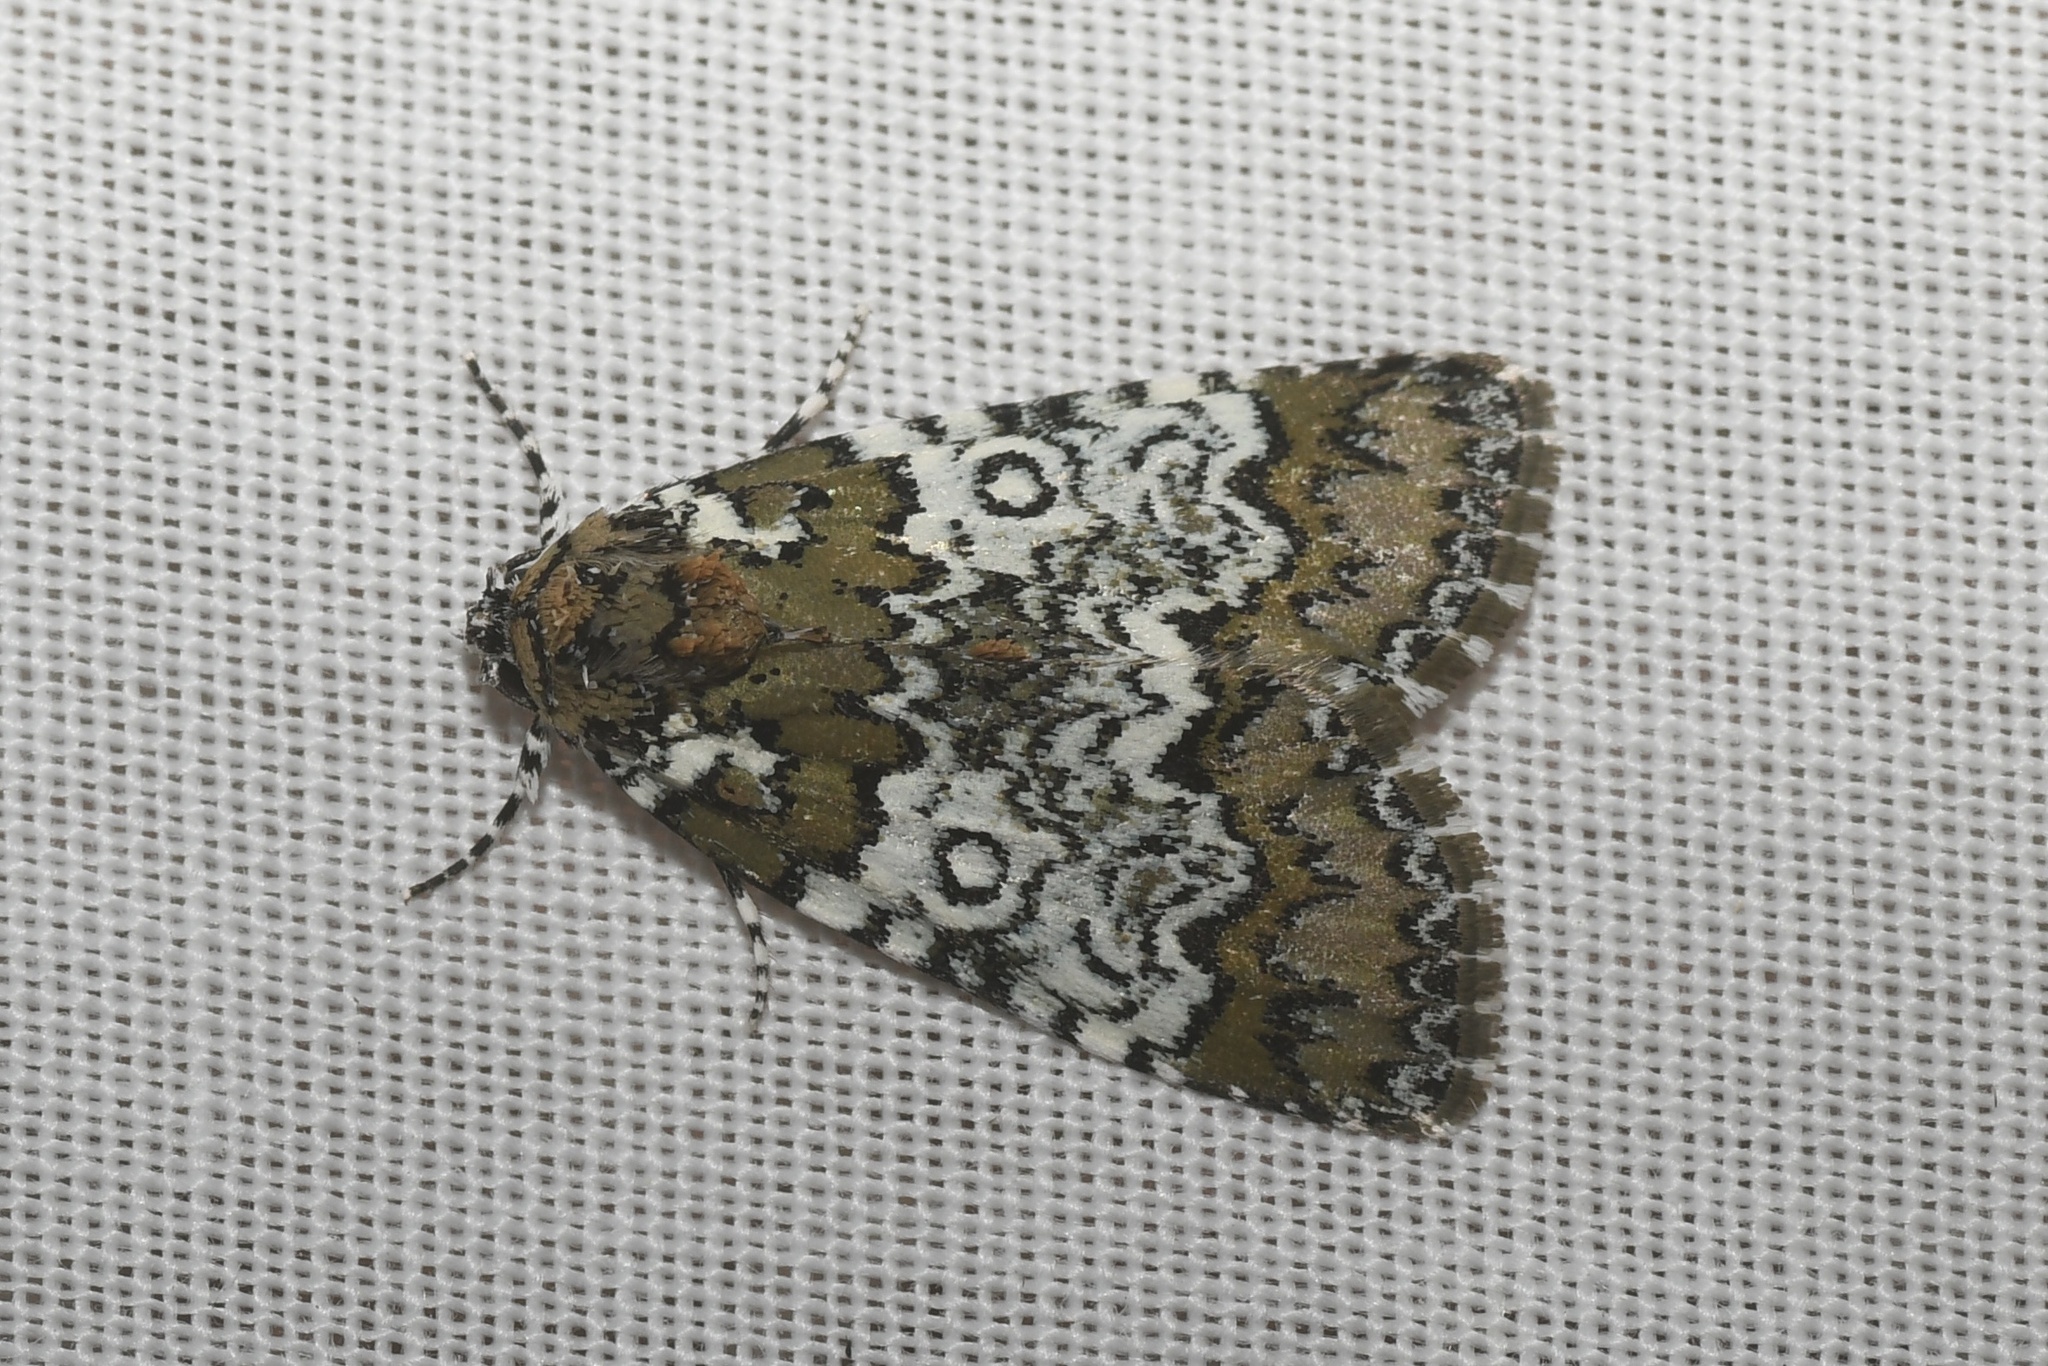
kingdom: Animalia
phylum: Arthropoda
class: Insecta
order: Lepidoptera
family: Noctuidae
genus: Cerma
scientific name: Cerma cora
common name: Bird dropping moth
